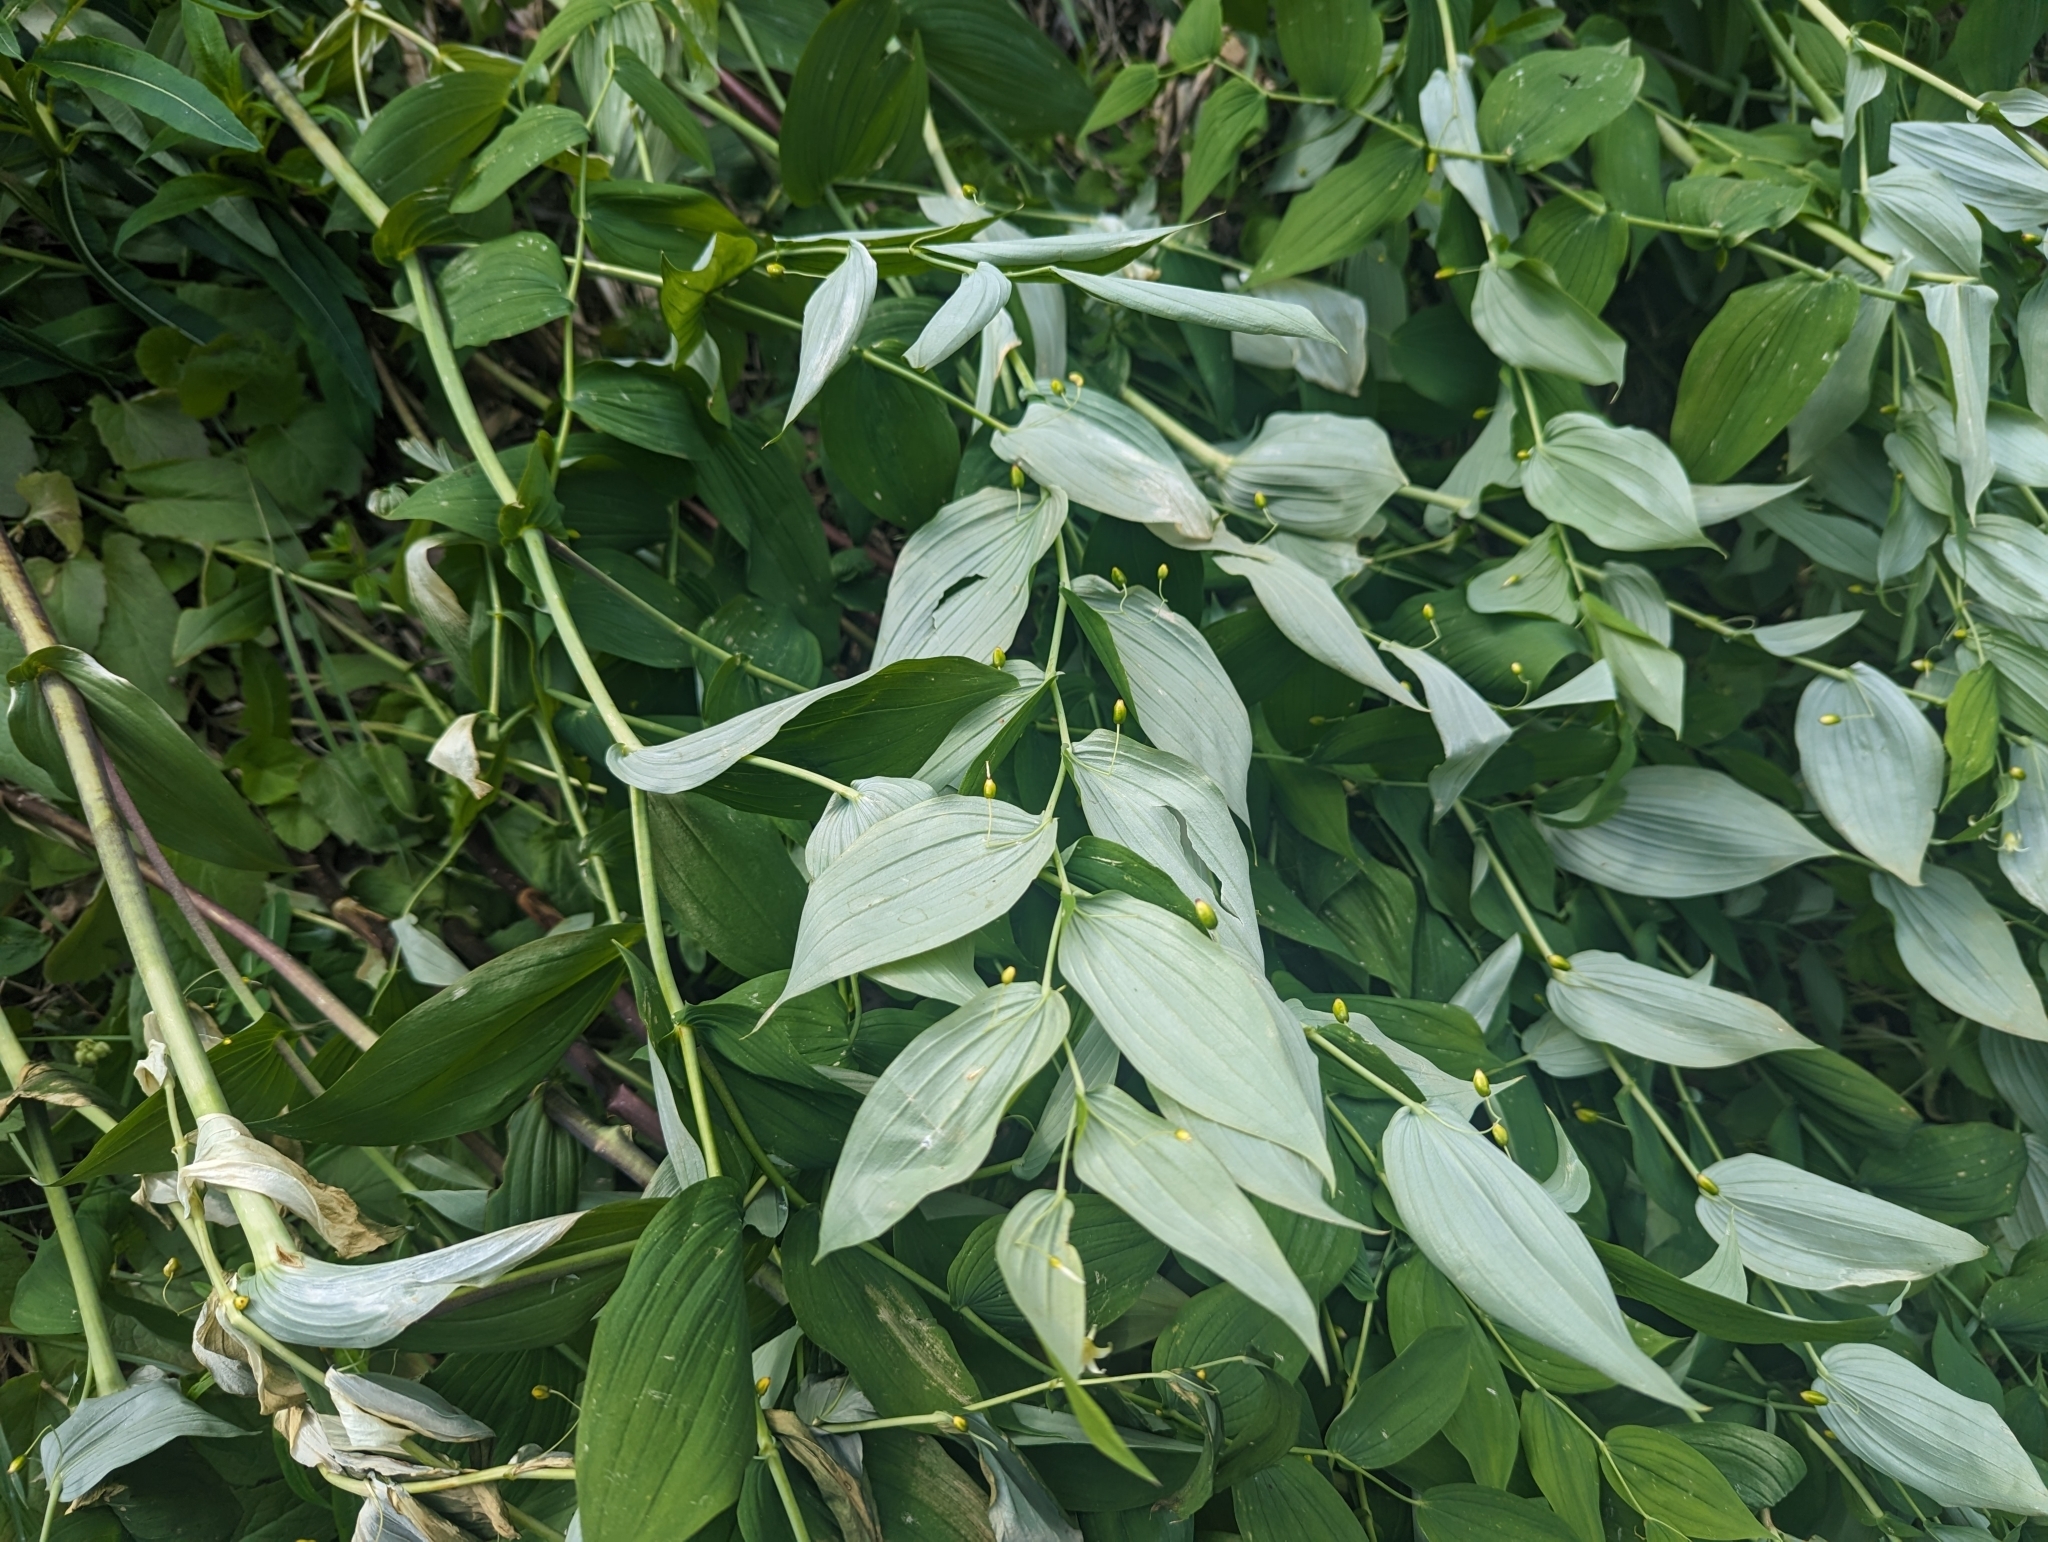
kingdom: Plantae
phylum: Tracheophyta
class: Liliopsida
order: Liliales
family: Liliaceae
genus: Streptopus
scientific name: Streptopus amplexifolius
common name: Clasp twisted stalk
